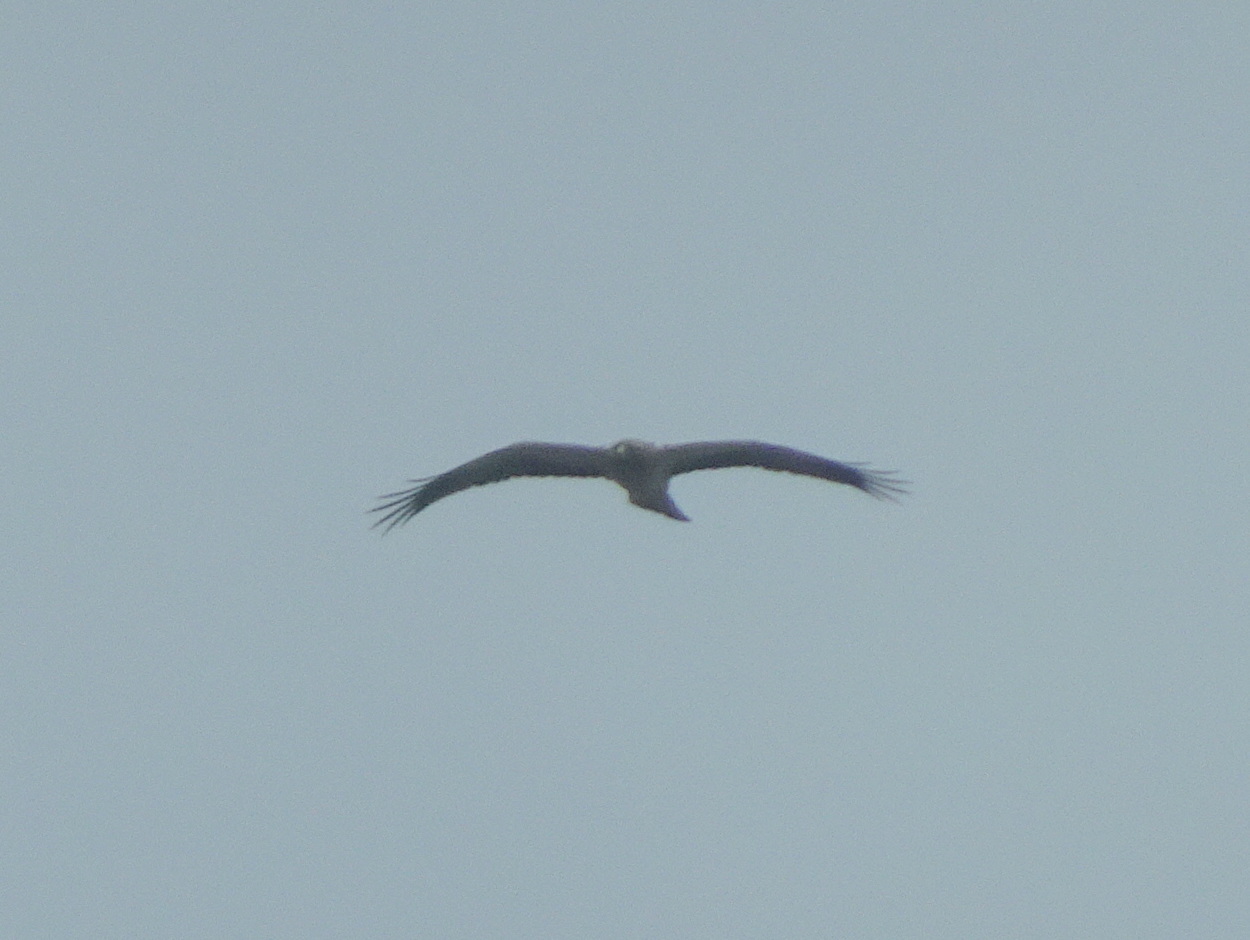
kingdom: Animalia
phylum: Chordata
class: Aves
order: Accipitriformes
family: Accipitridae
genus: Hieraaetus
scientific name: Hieraaetus pennatus
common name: Booted eagle
